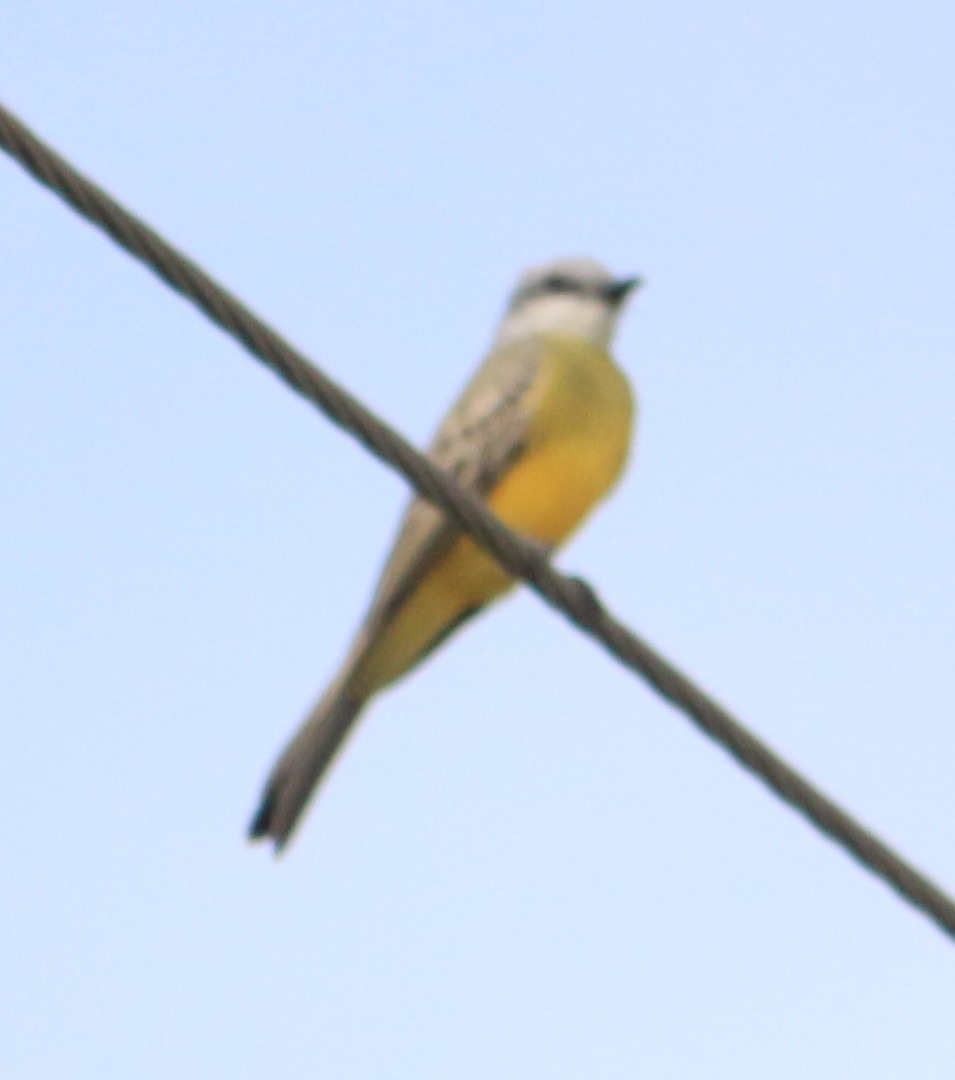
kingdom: Animalia
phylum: Chordata
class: Aves
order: Passeriformes
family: Tyrannidae
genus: Tyrannus
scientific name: Tyrannus melancholicus
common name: Tropical kingbird
